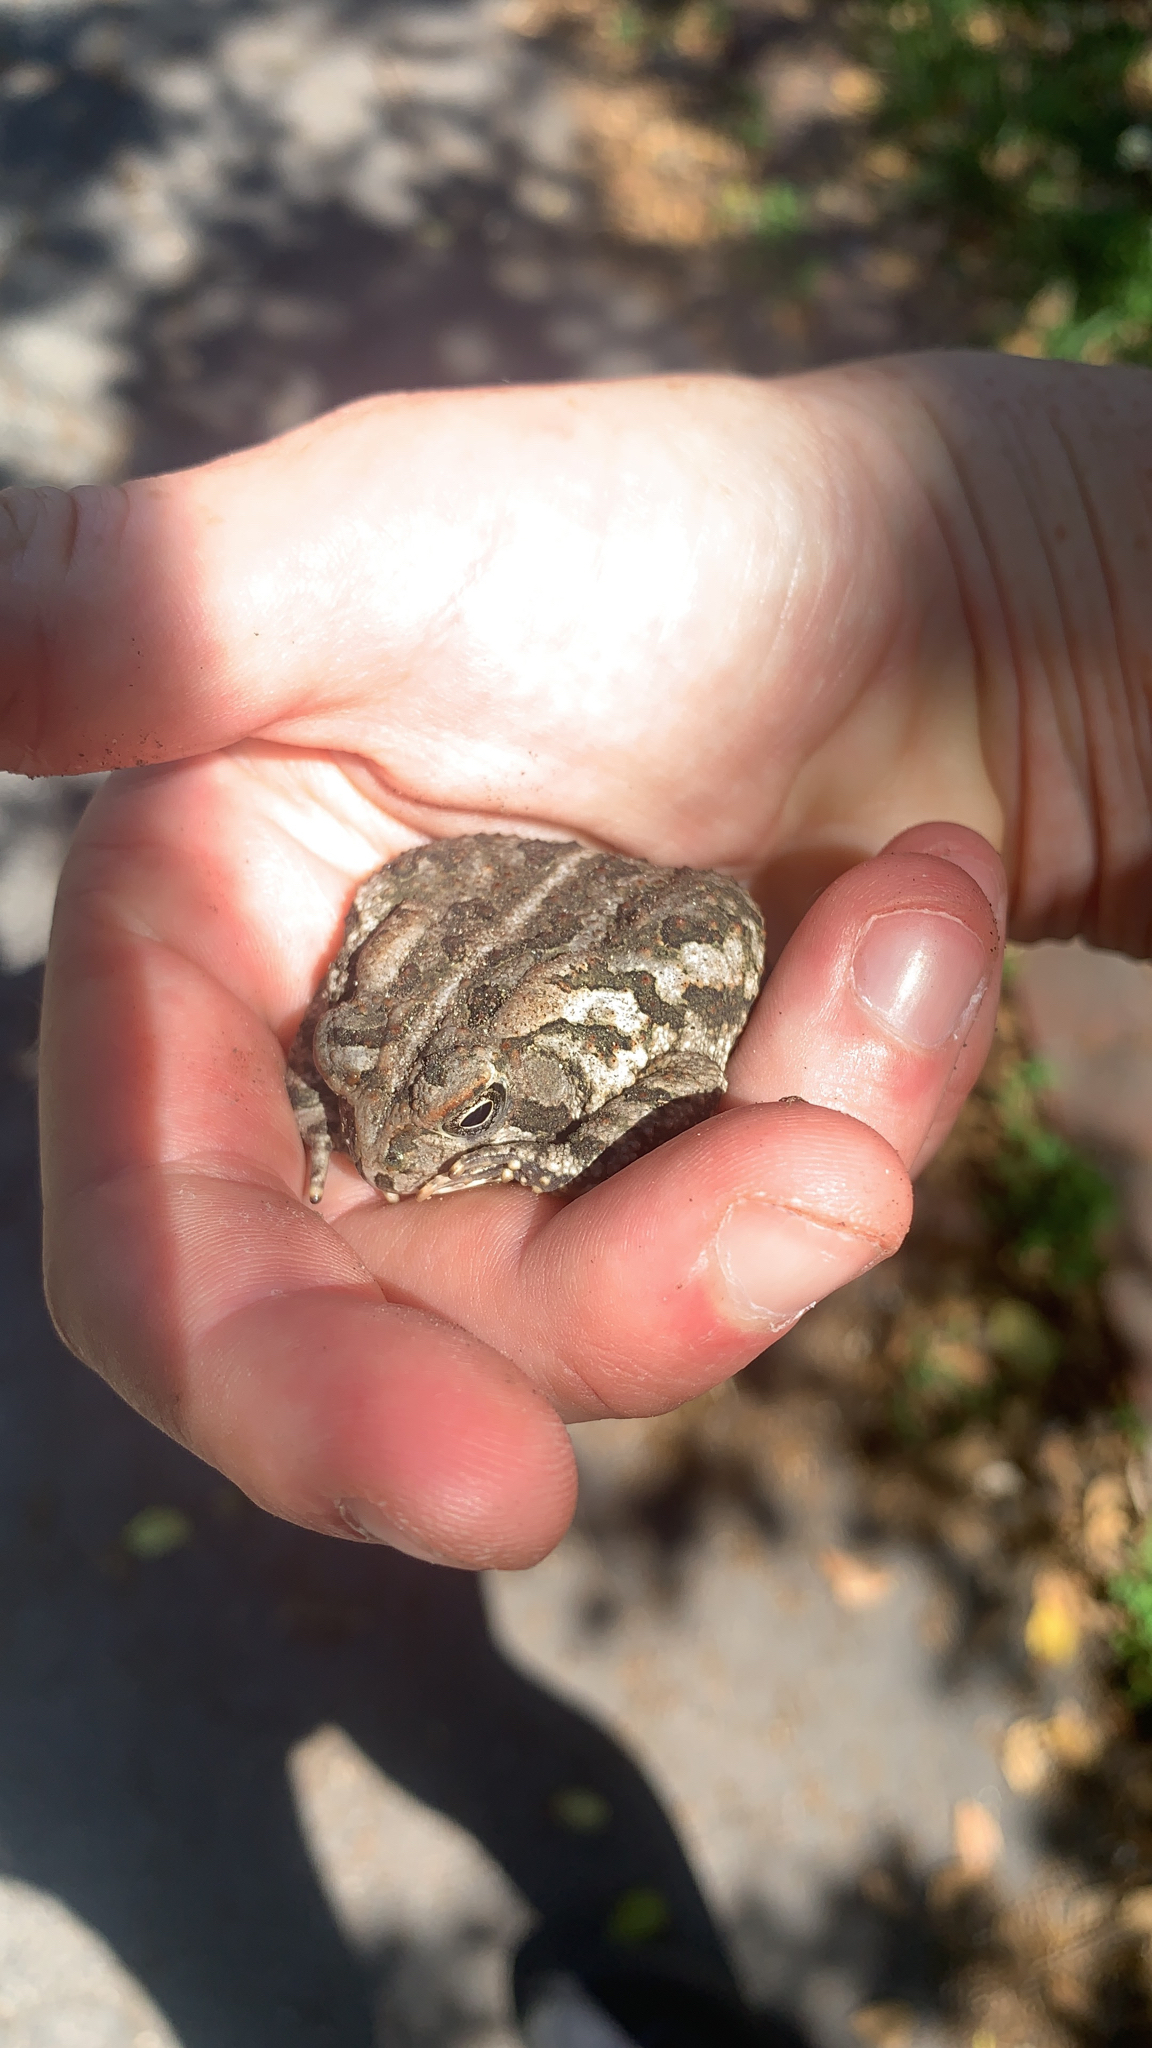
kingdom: Animalia
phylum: Chordata
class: Amphibia
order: Anura
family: Bufonidae
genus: Anaxyrus
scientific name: Anaxyrus fowleri
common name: Fowler's toad
